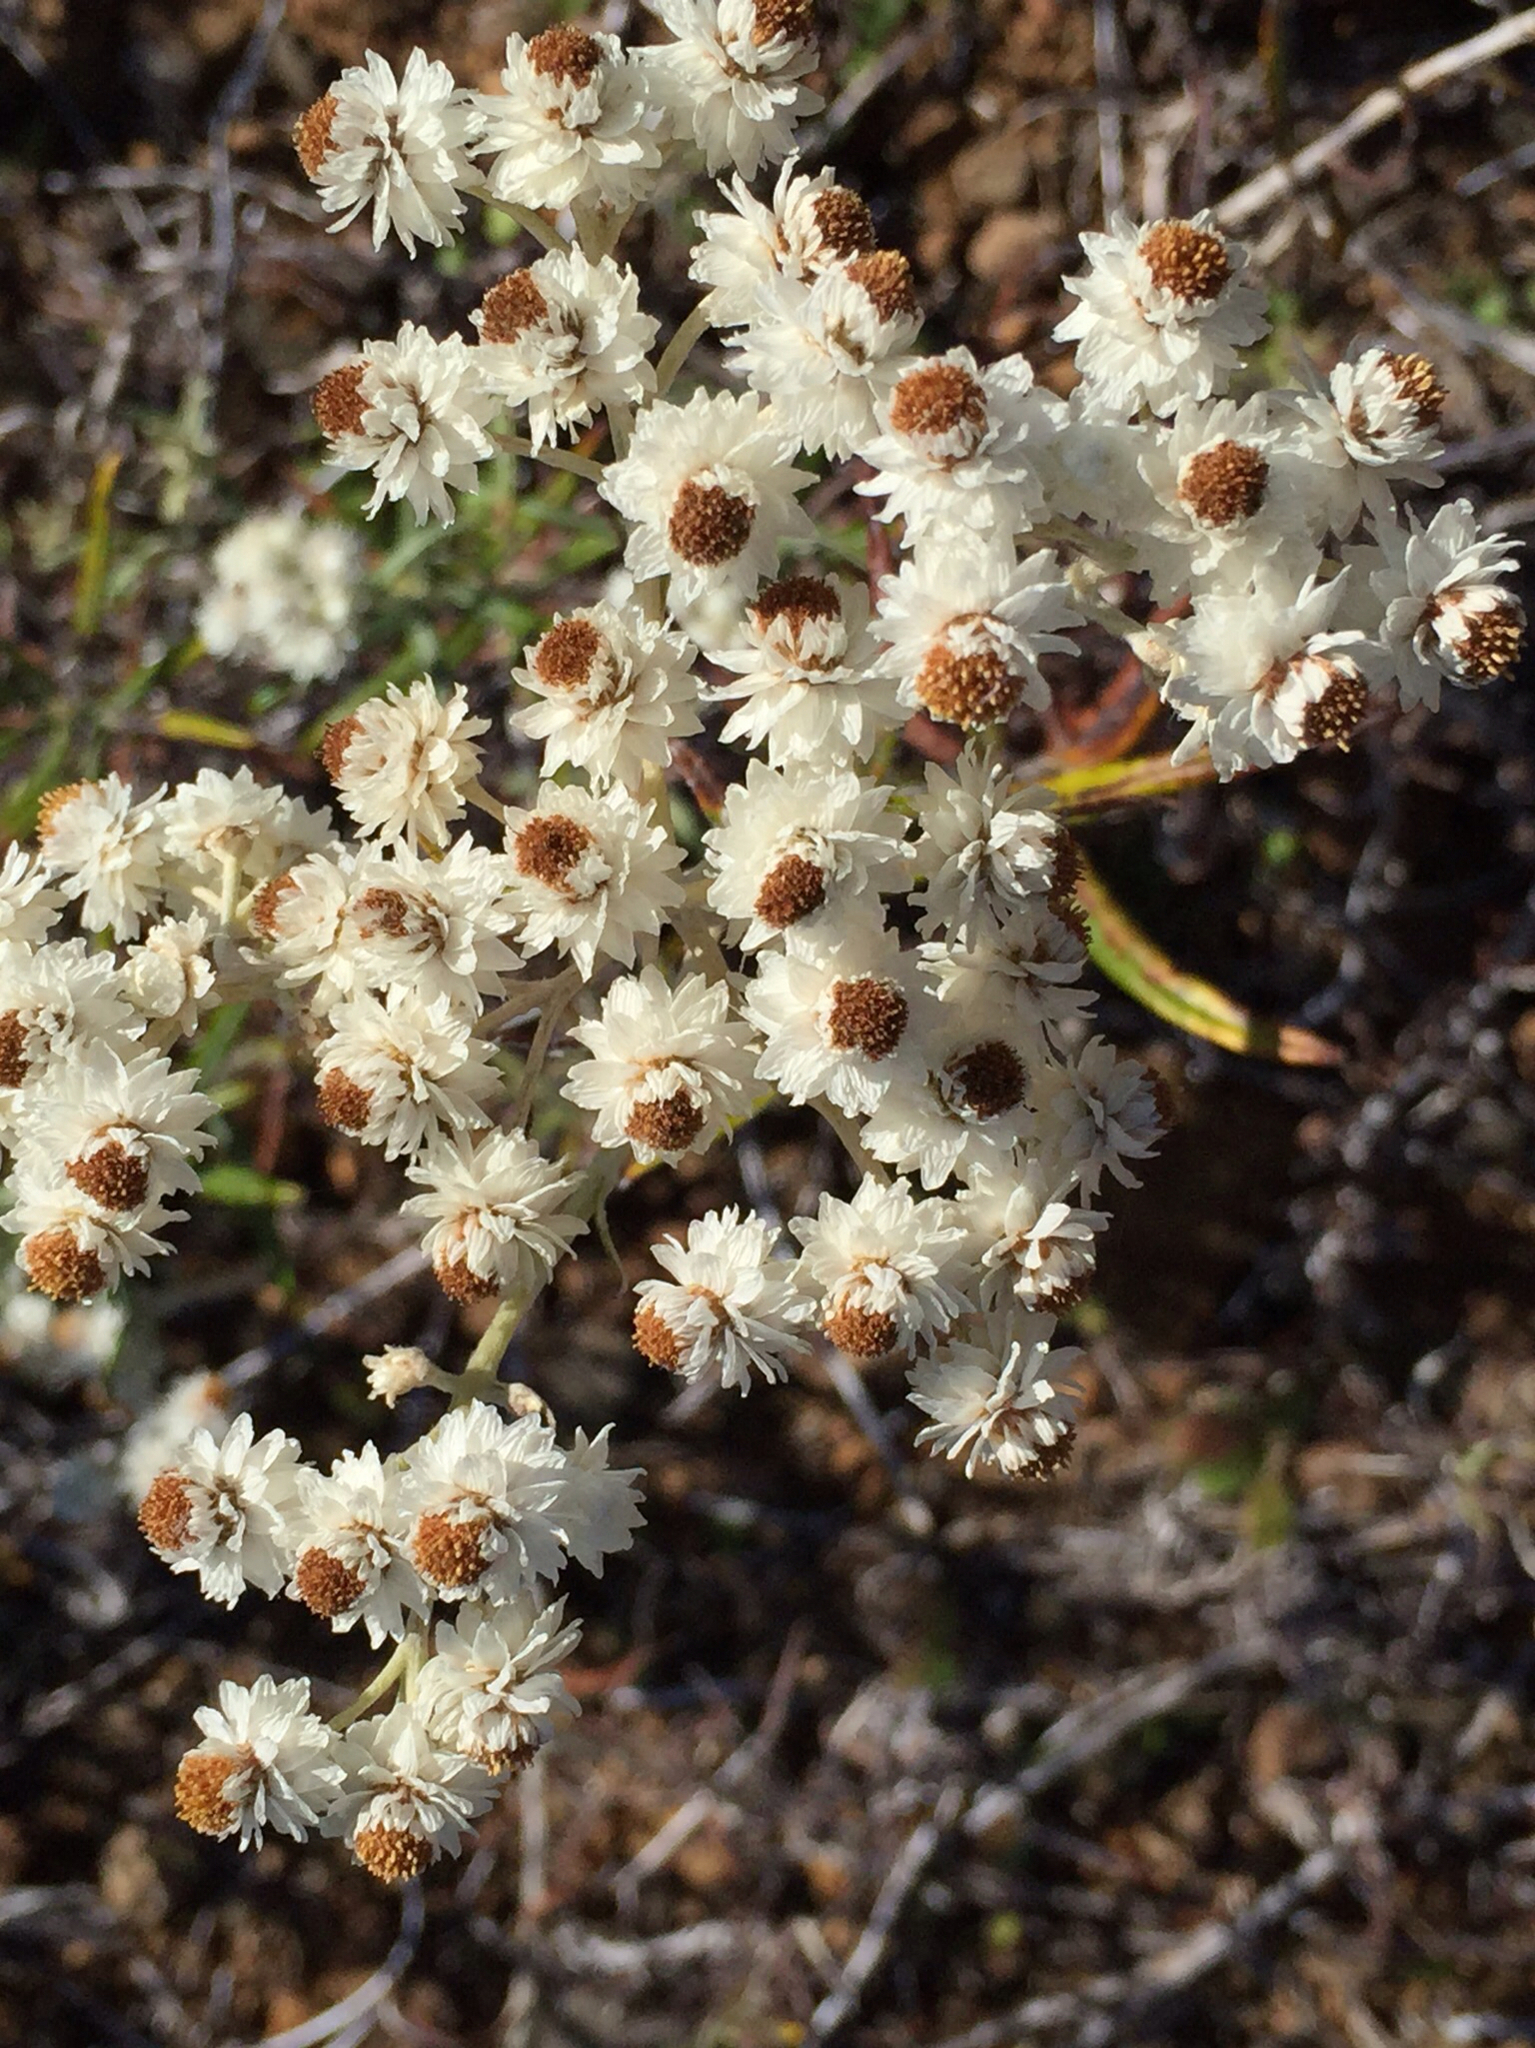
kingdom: Plantae
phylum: Tracheophyta
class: Magnoliopsida
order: Asterales
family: Asteraceae
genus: Anaphalis
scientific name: Anaphalis margaritacea
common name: Pearly everlasting
